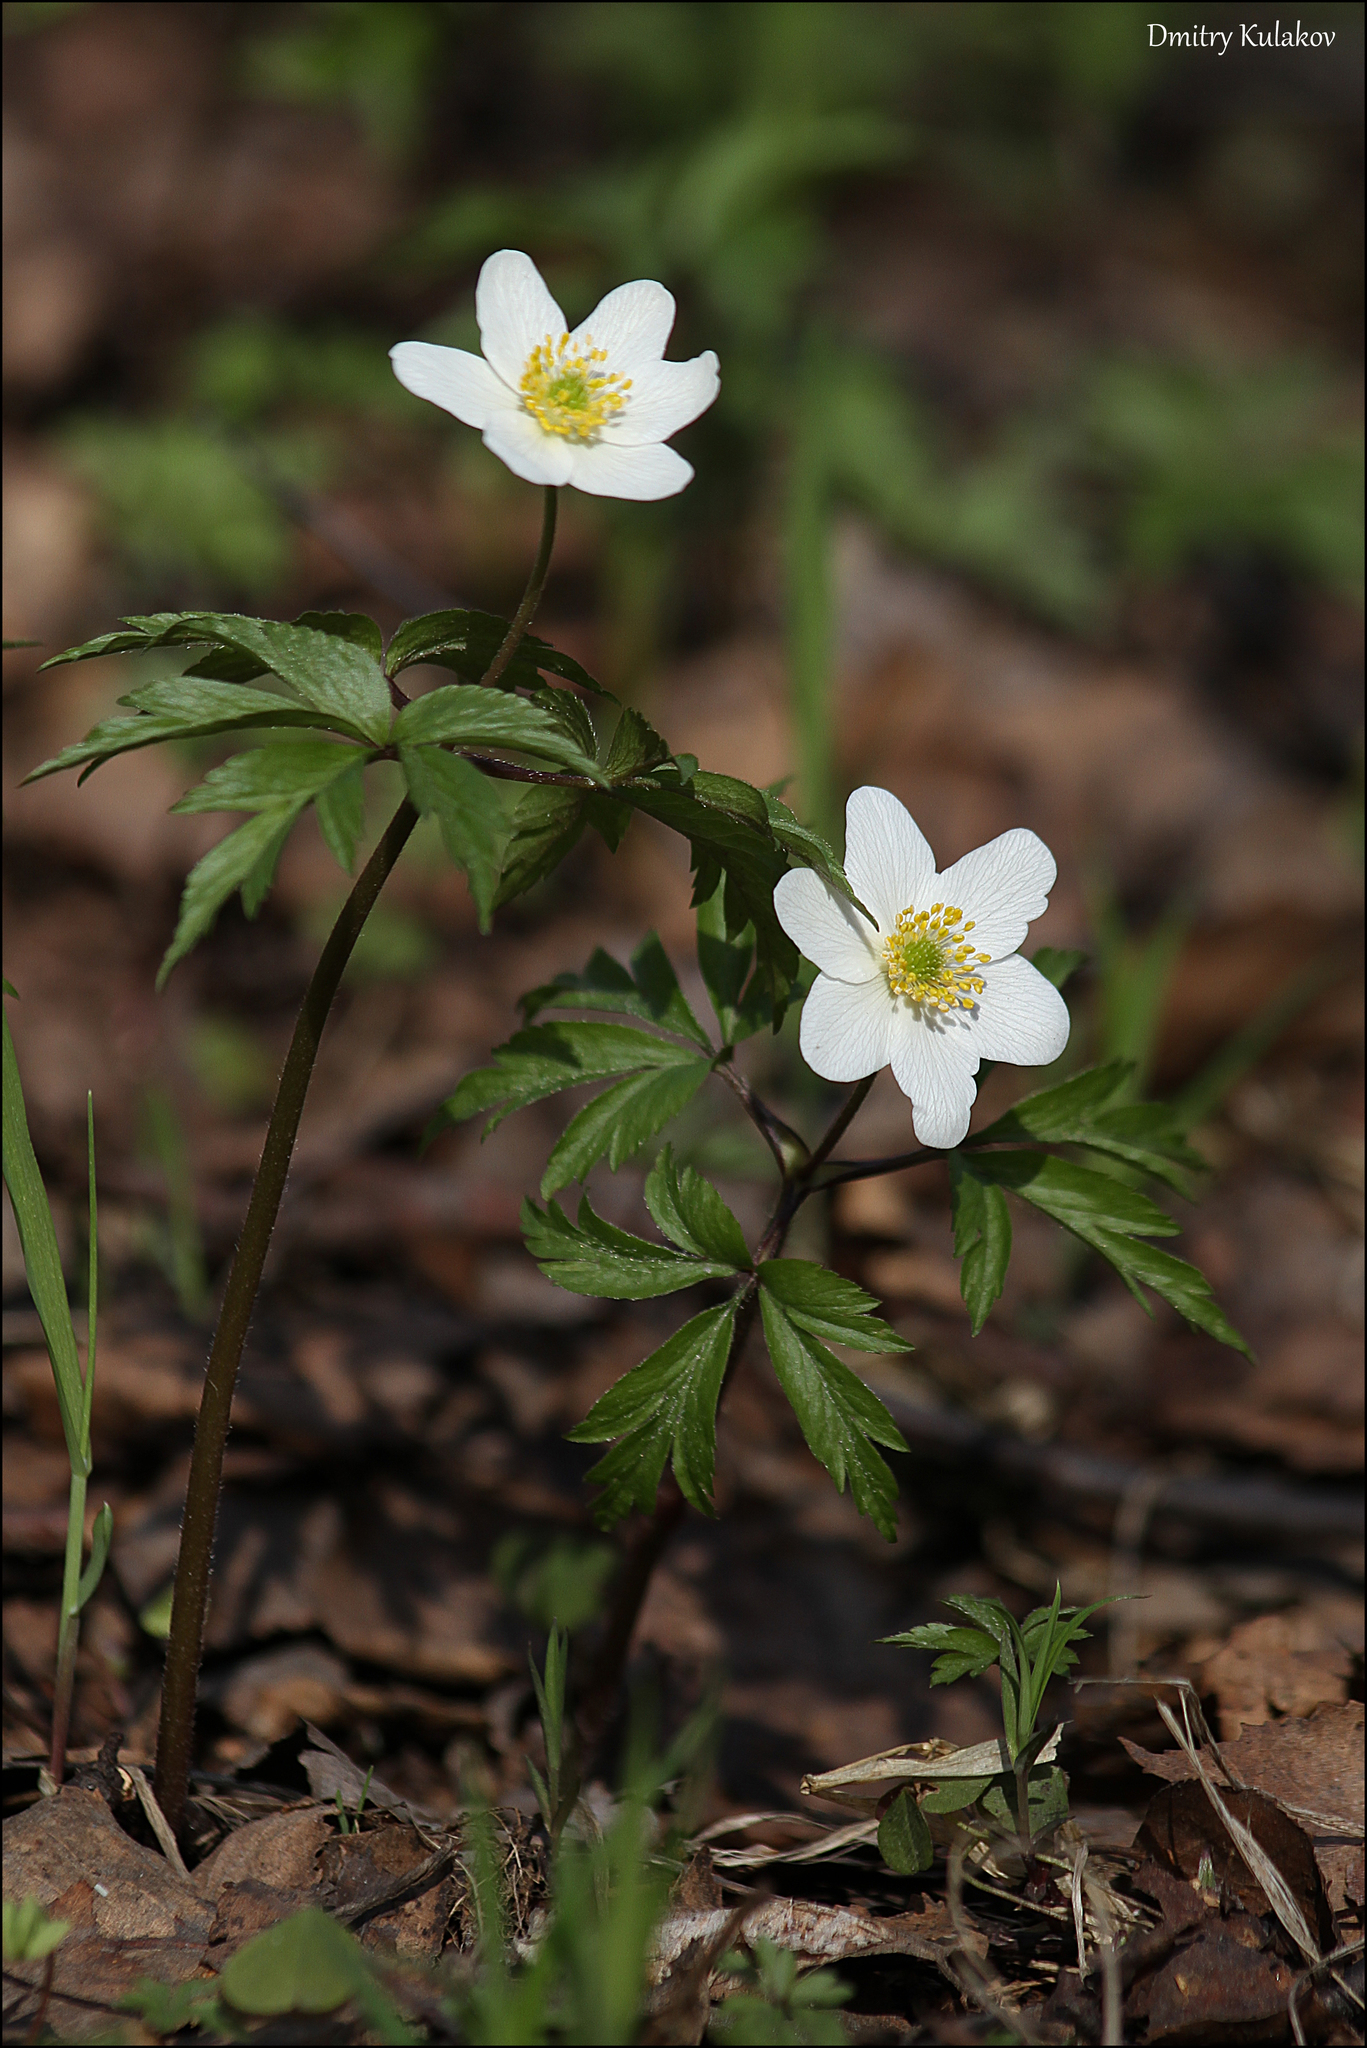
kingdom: Plantae
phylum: Tracheophyta
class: Magnoliopsida
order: Ranunculales
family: Ranunculaceae
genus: Anemone
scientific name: Anemone nemorosa
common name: Wood anemone
